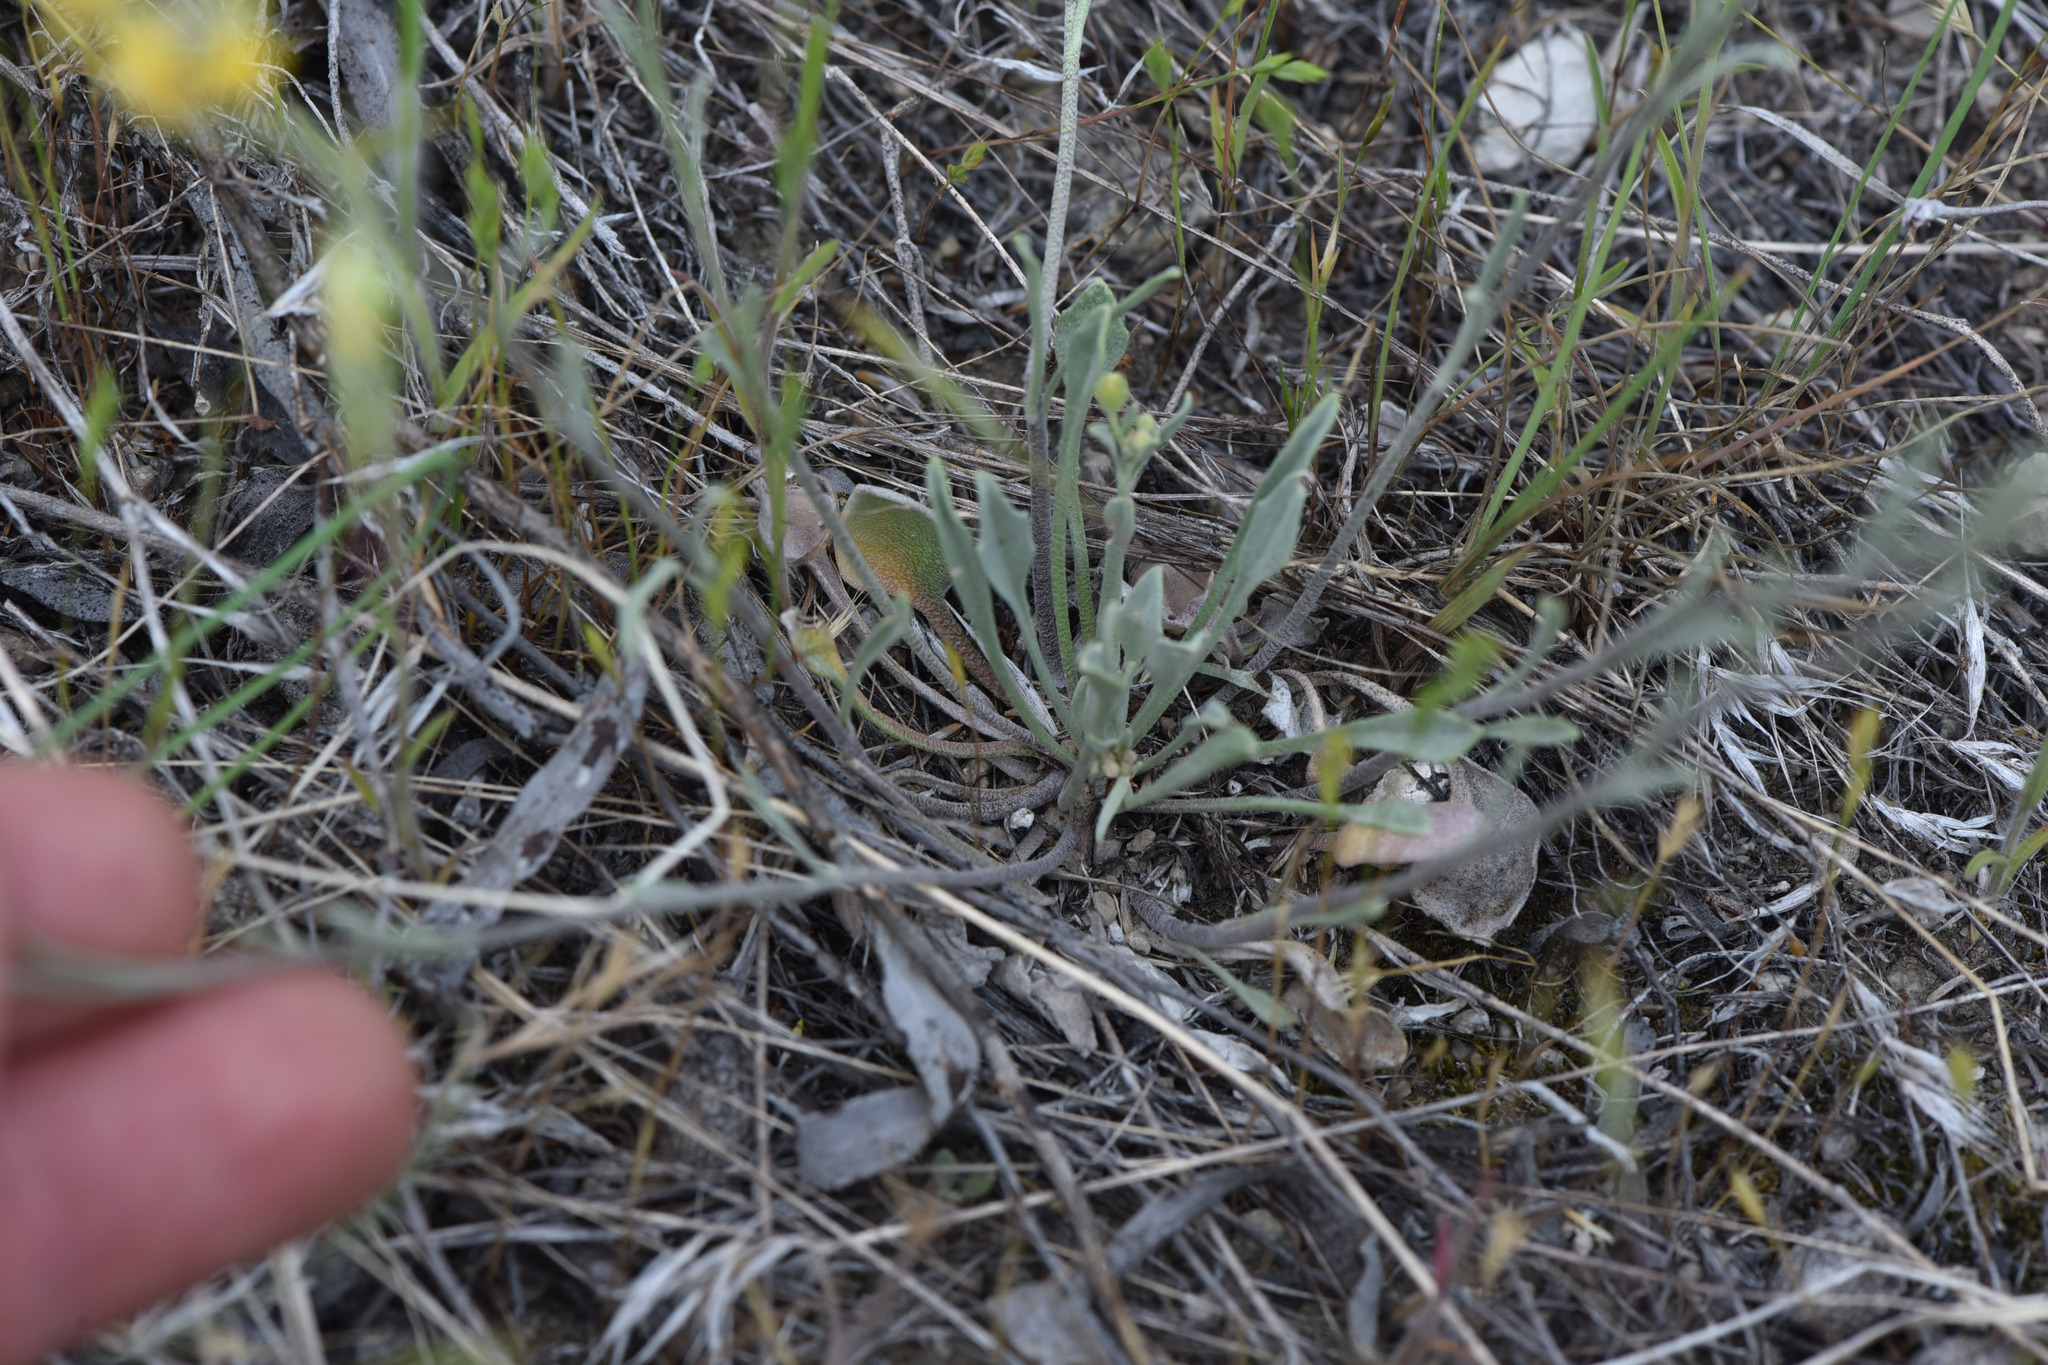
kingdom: Plantae
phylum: Tracheophyta
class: Magnoliopsida
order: Brassicales
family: Brassicaceae
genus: Physaria
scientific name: Physaria douglasii
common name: Douglas's bladderpod
